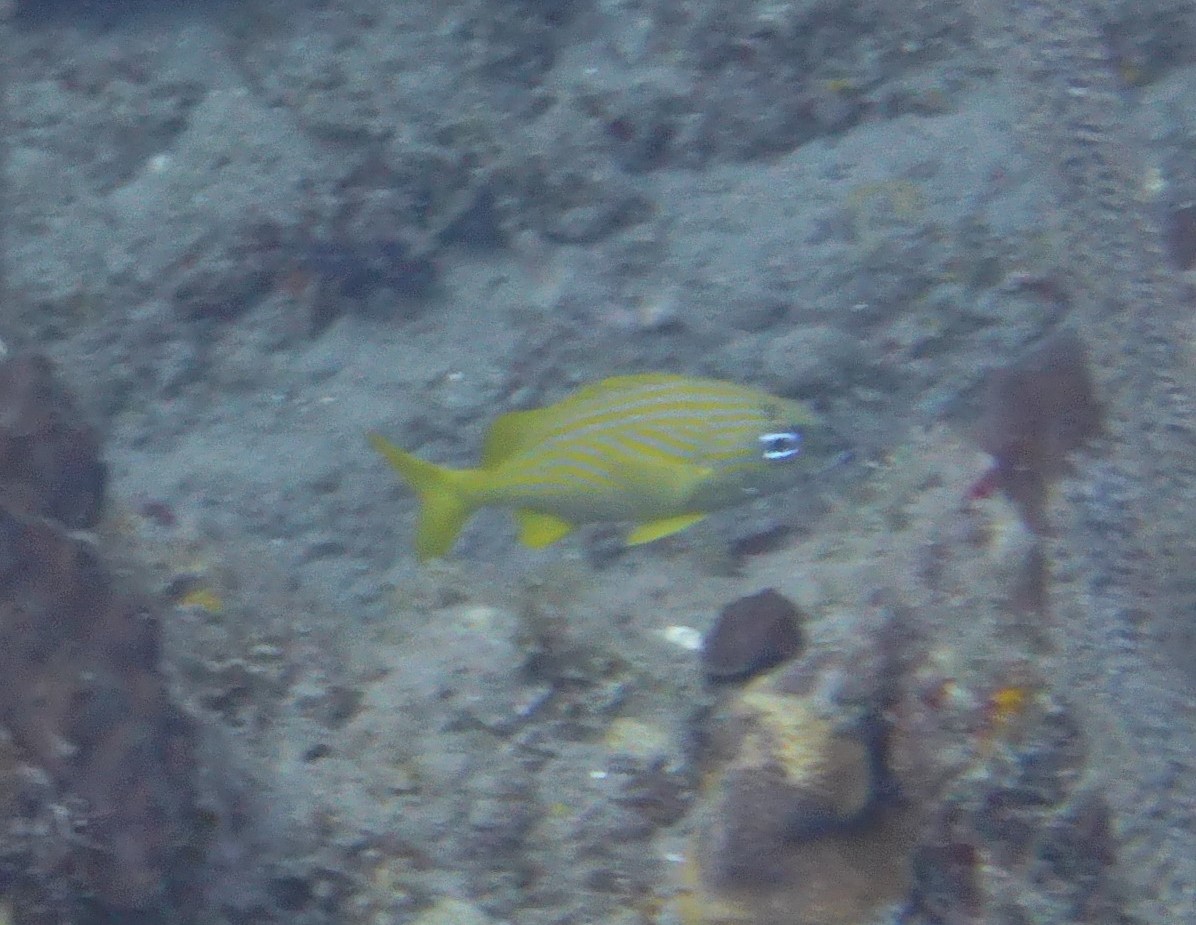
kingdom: Animalia
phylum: Chordata
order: Perciformes
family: Haemulidae
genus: Haemulon
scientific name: Haemulon flavolineatum
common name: French grunt
